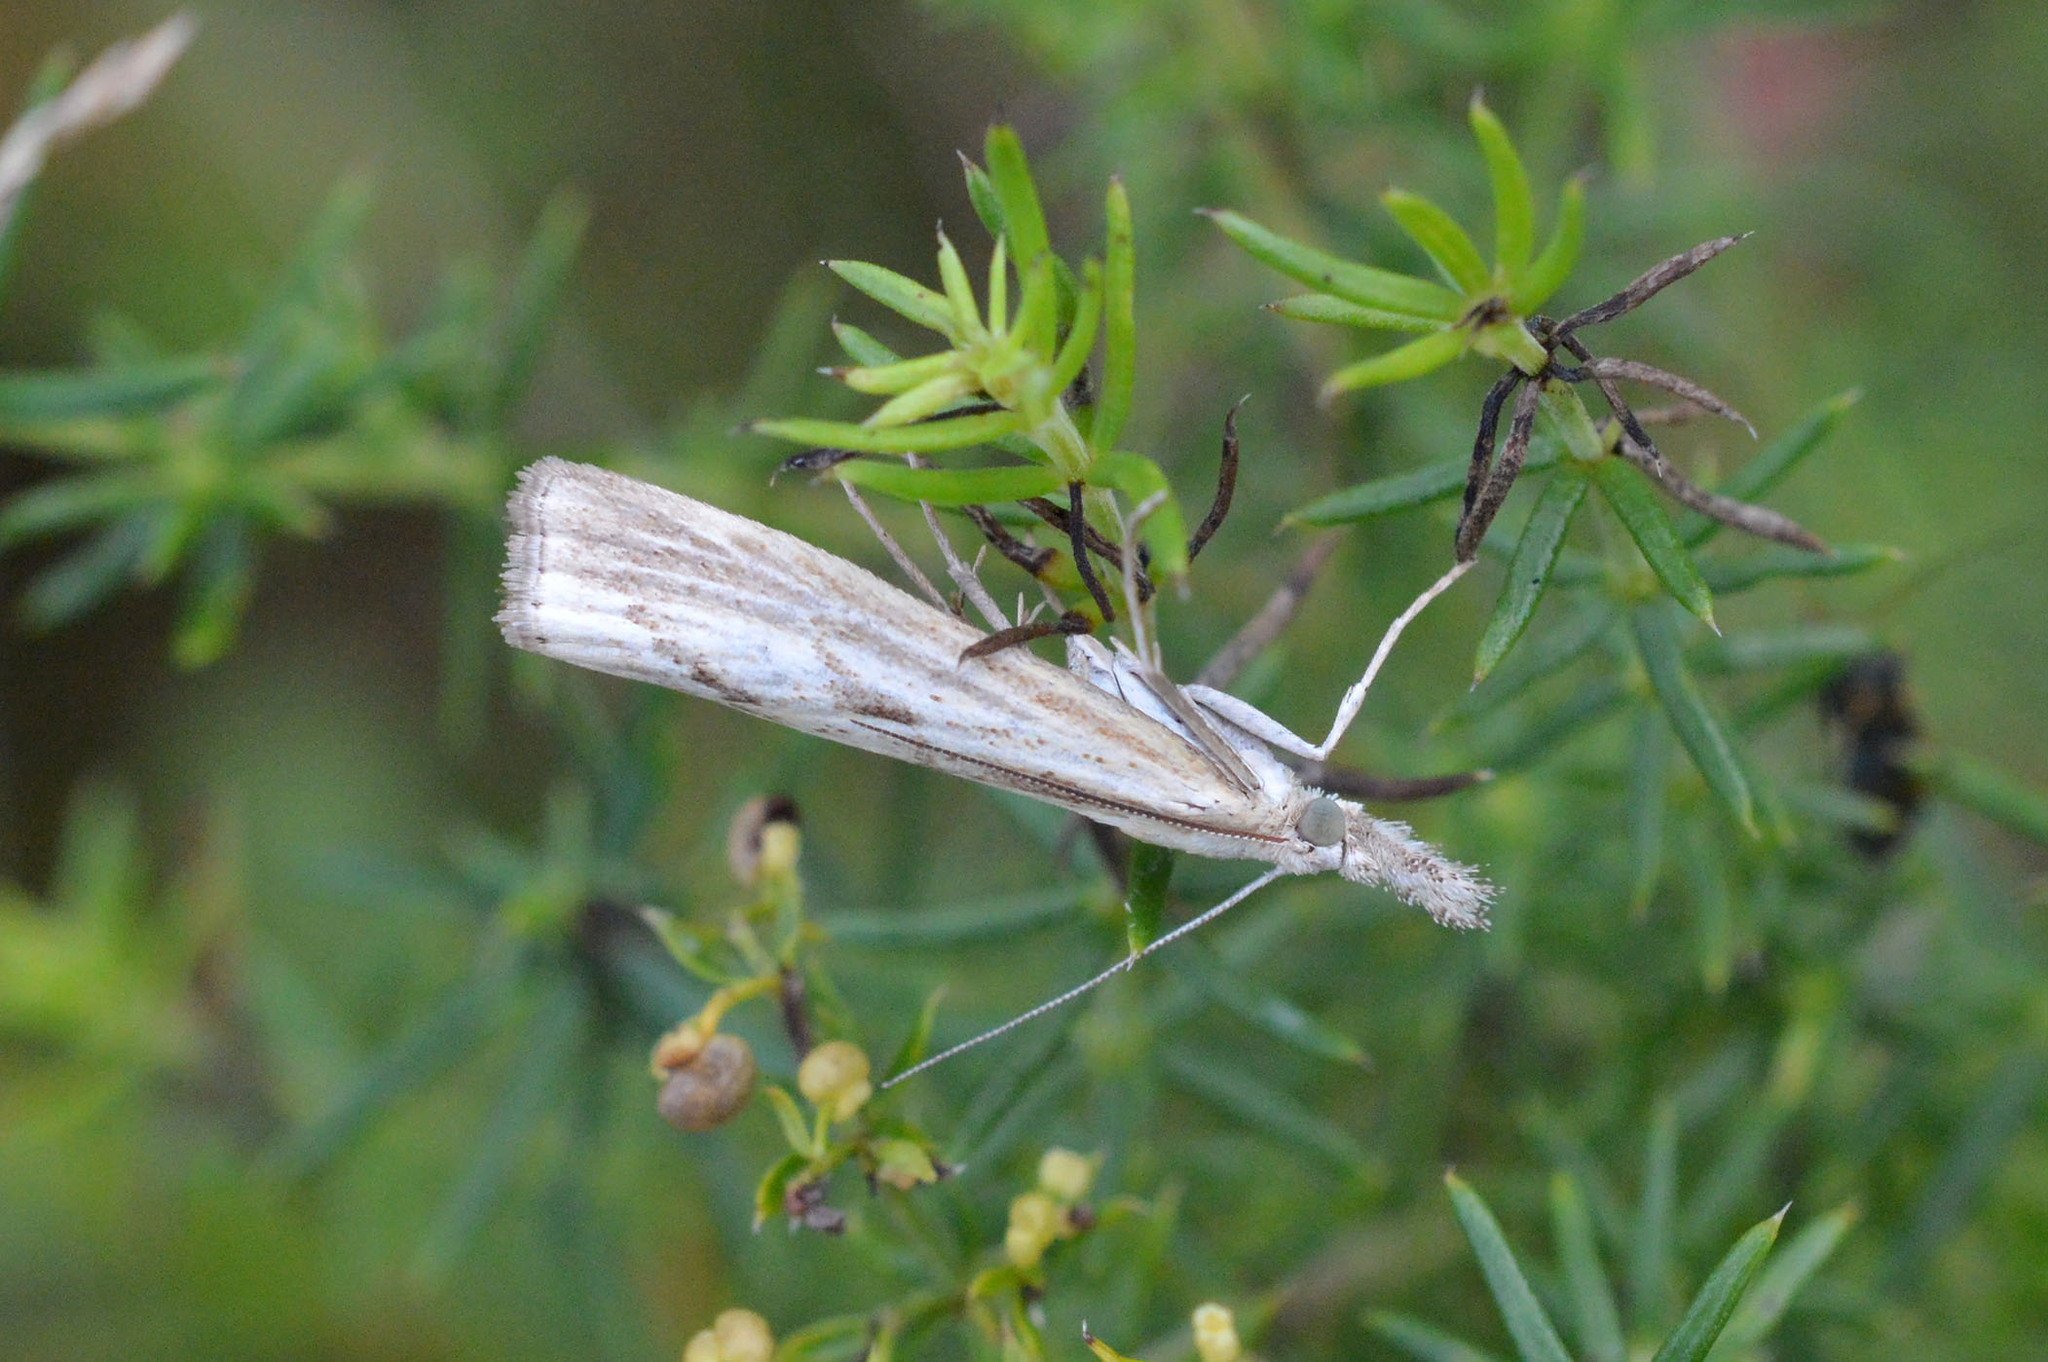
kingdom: Animalia
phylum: Arthropoda
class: Insecta
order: Lepidoptera
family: Crambidae
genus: Agriphila
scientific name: Agriphila inquinatella
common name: Barred grass-veneer
